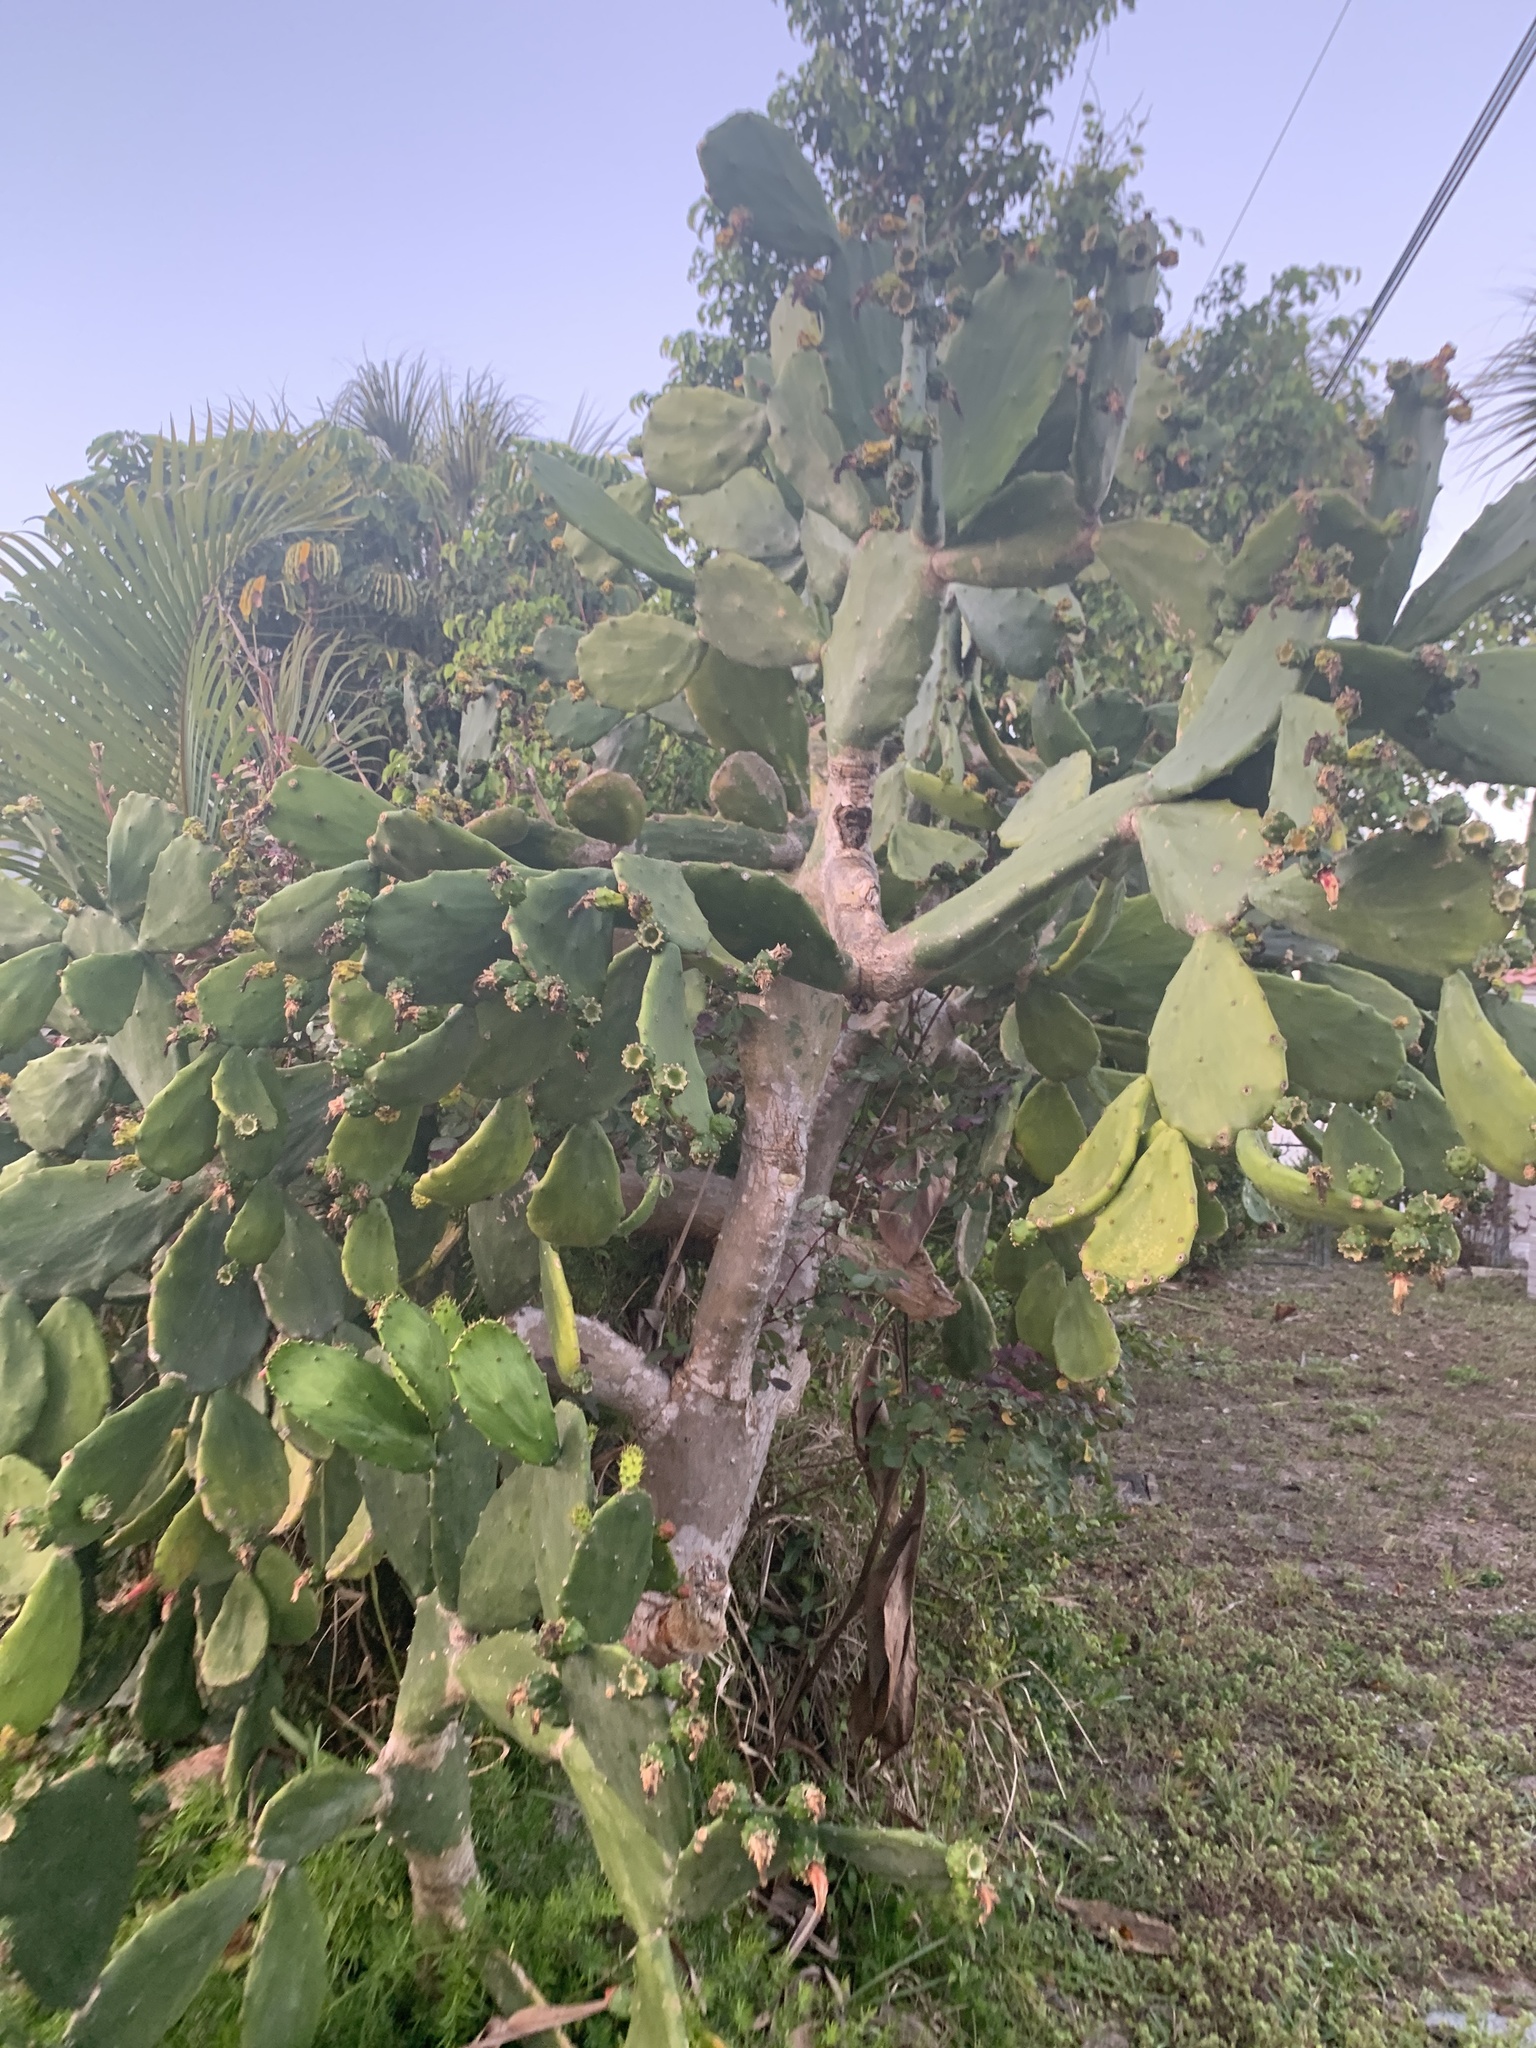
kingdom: Plantae
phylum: Tracheophyta
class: Magnoliopsida
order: Caryophyllales
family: Cactaceae
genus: Opuntia
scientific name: Opuntia cochenillifera
